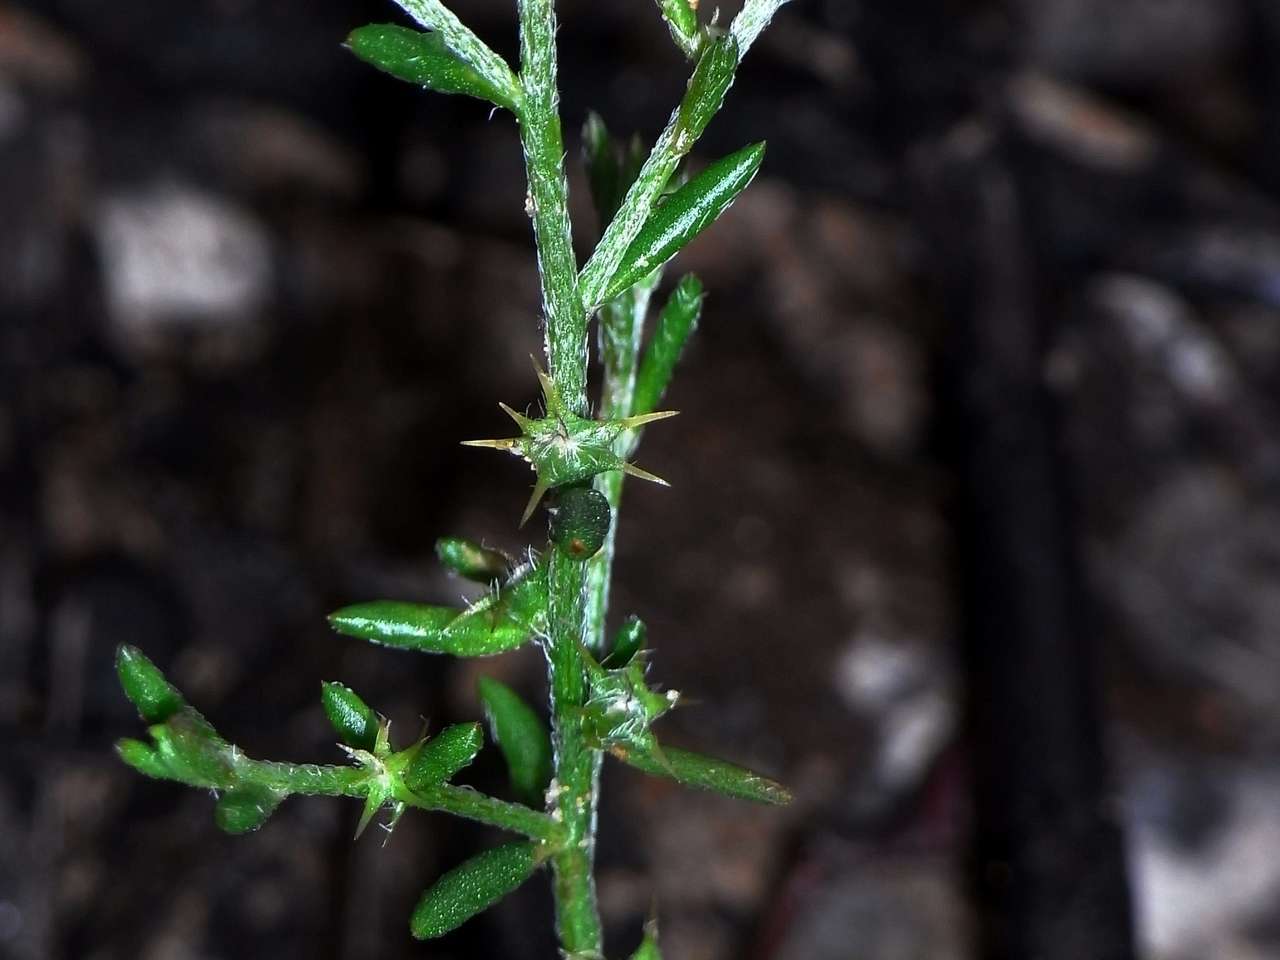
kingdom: Plantae
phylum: Tracheophyta
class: Magnoliopsida
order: Caryophyllales
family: Amaranthaceae
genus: Sclerolaena
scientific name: Sclerolaena parviflora
